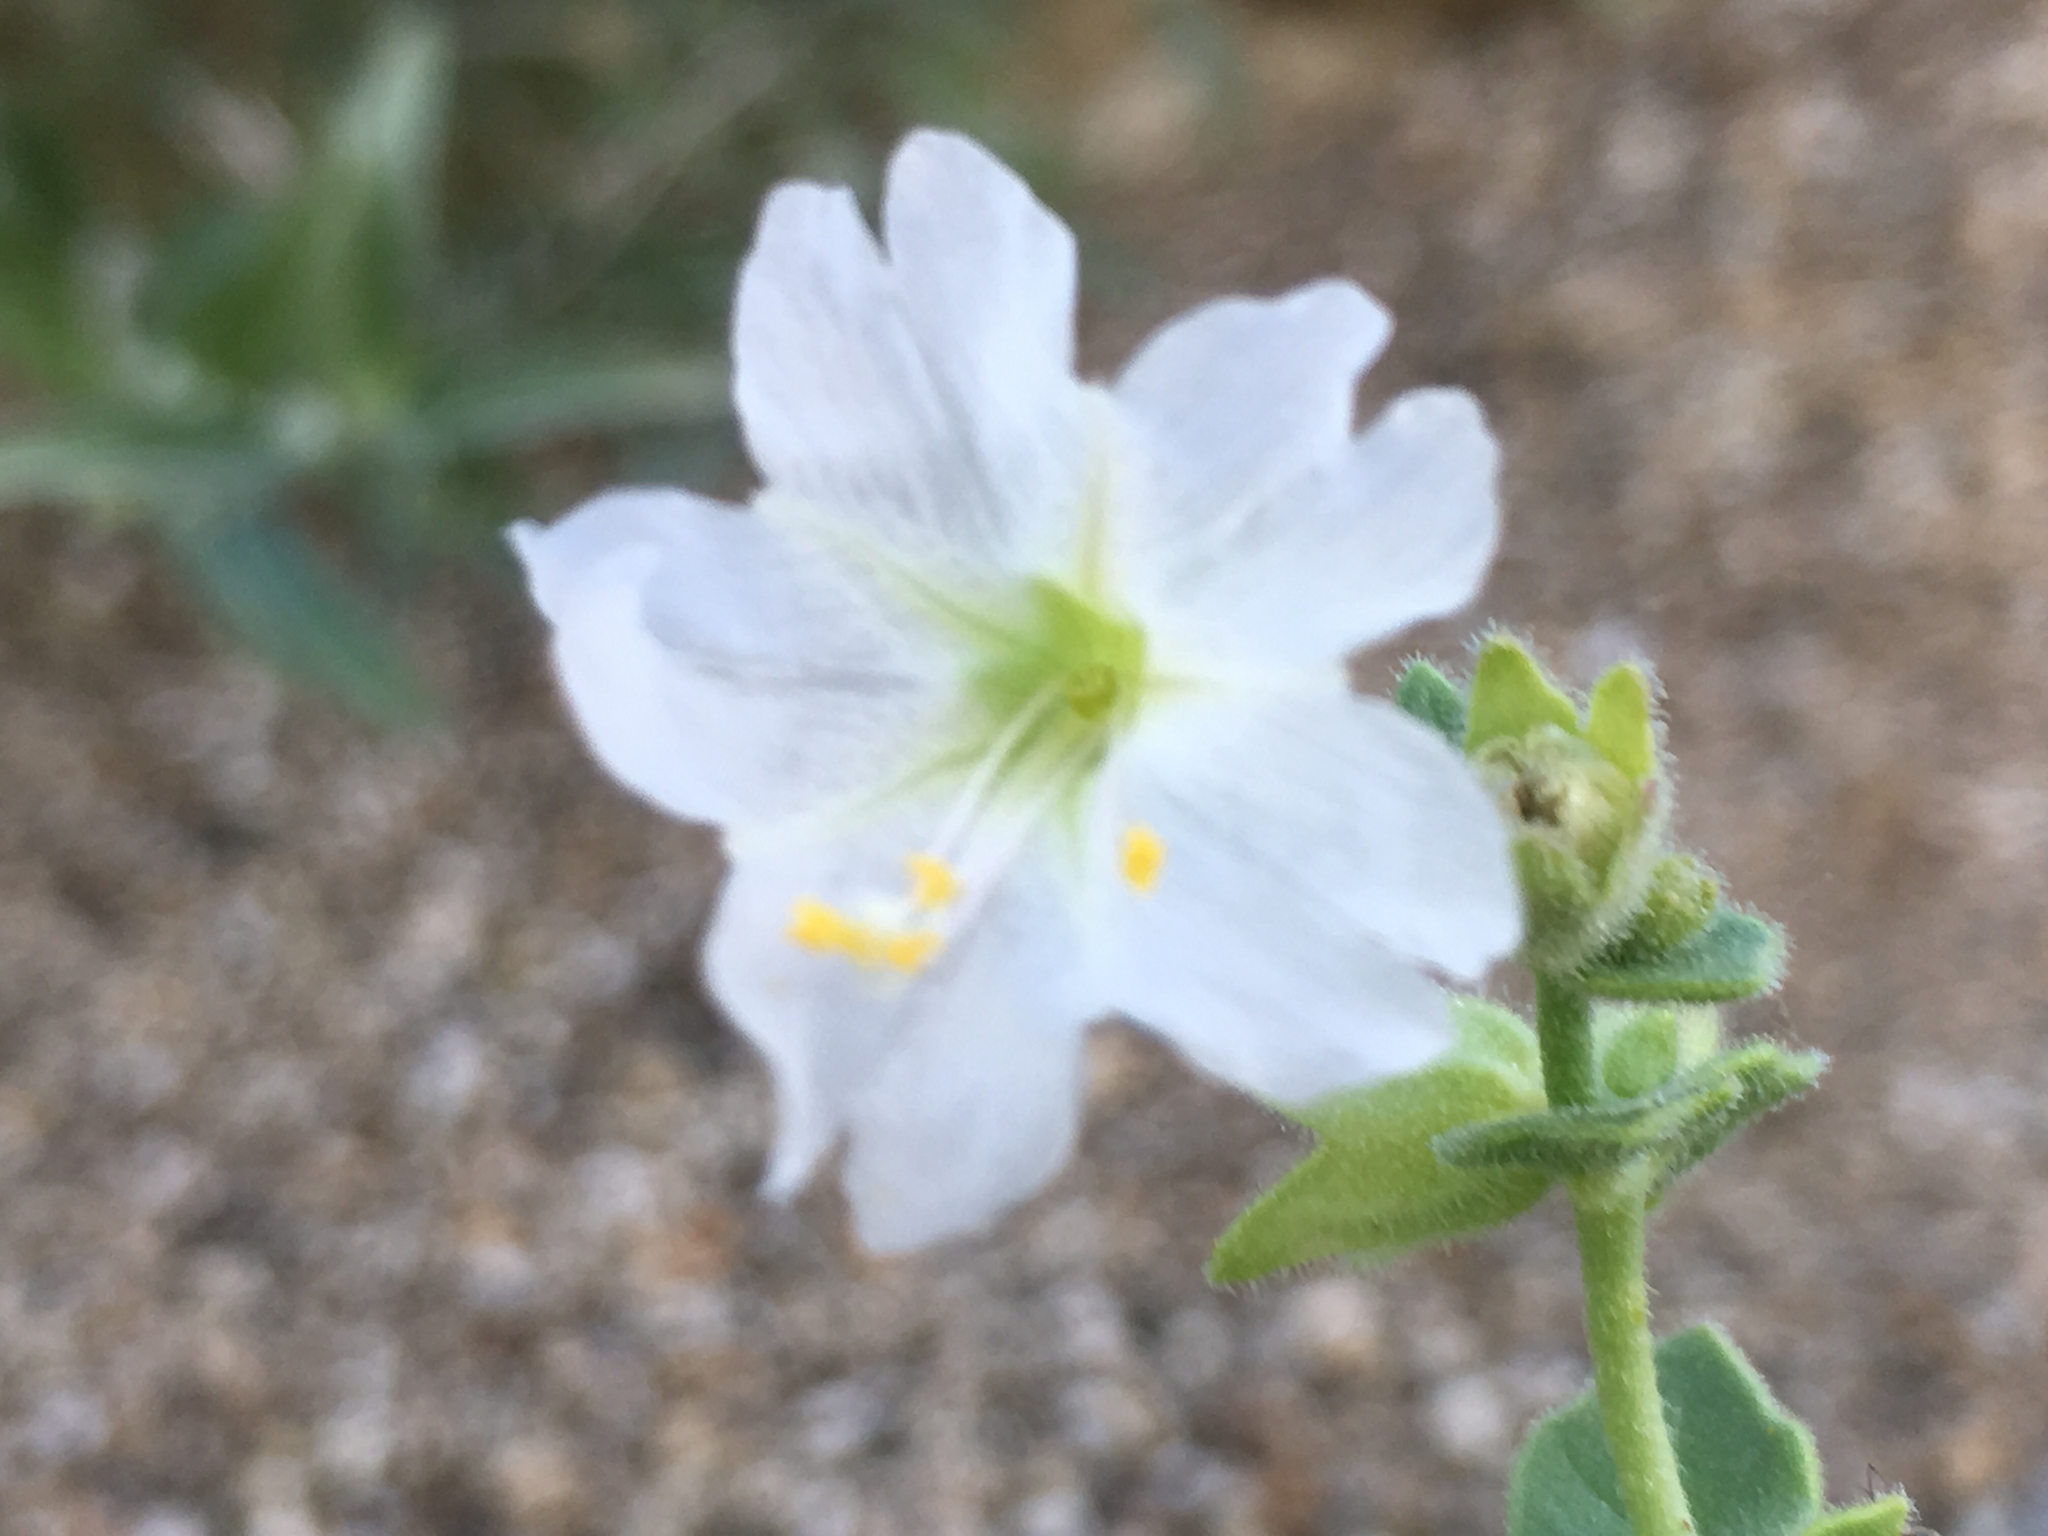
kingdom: Plantae
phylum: Tracheophyta
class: Magnoliopsida
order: Caryophyllales
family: Nyctaginaceae
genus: Mirabilis
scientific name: Mirabilis laevis
